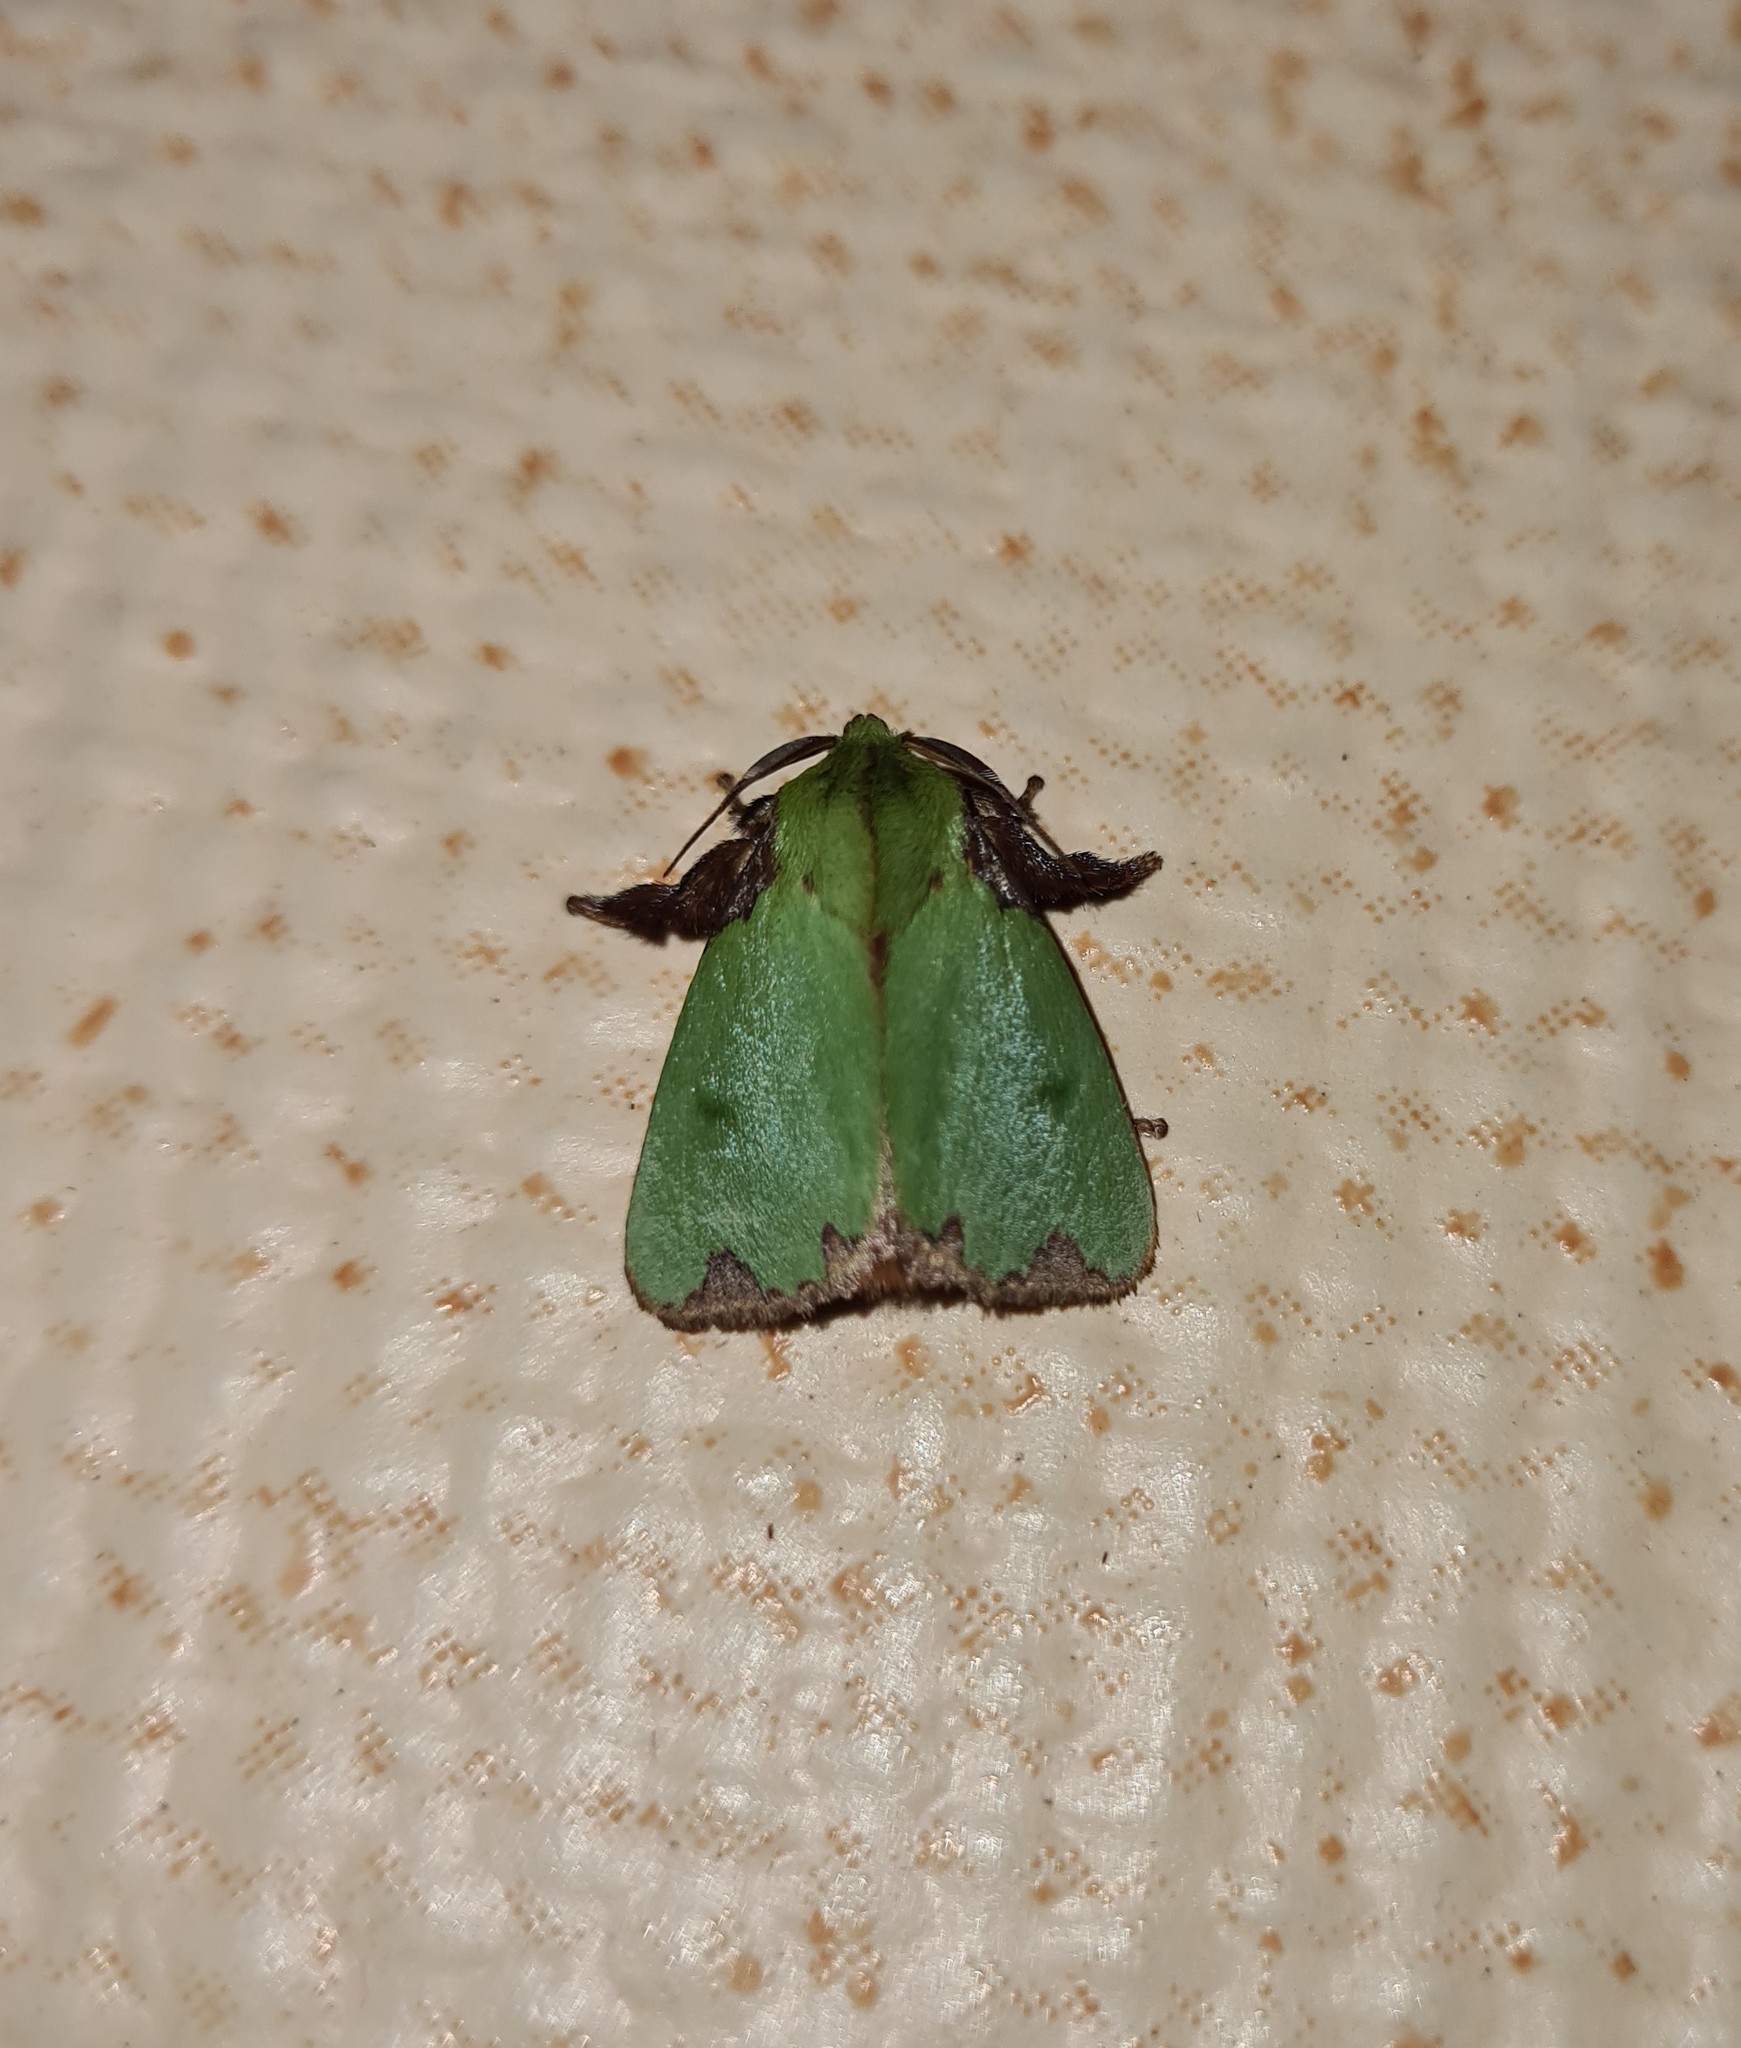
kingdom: Animalia
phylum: Arthropoda
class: Insecta
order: Lepidoptera
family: Limacodidae
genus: Parasa
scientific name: Parasa imitata
